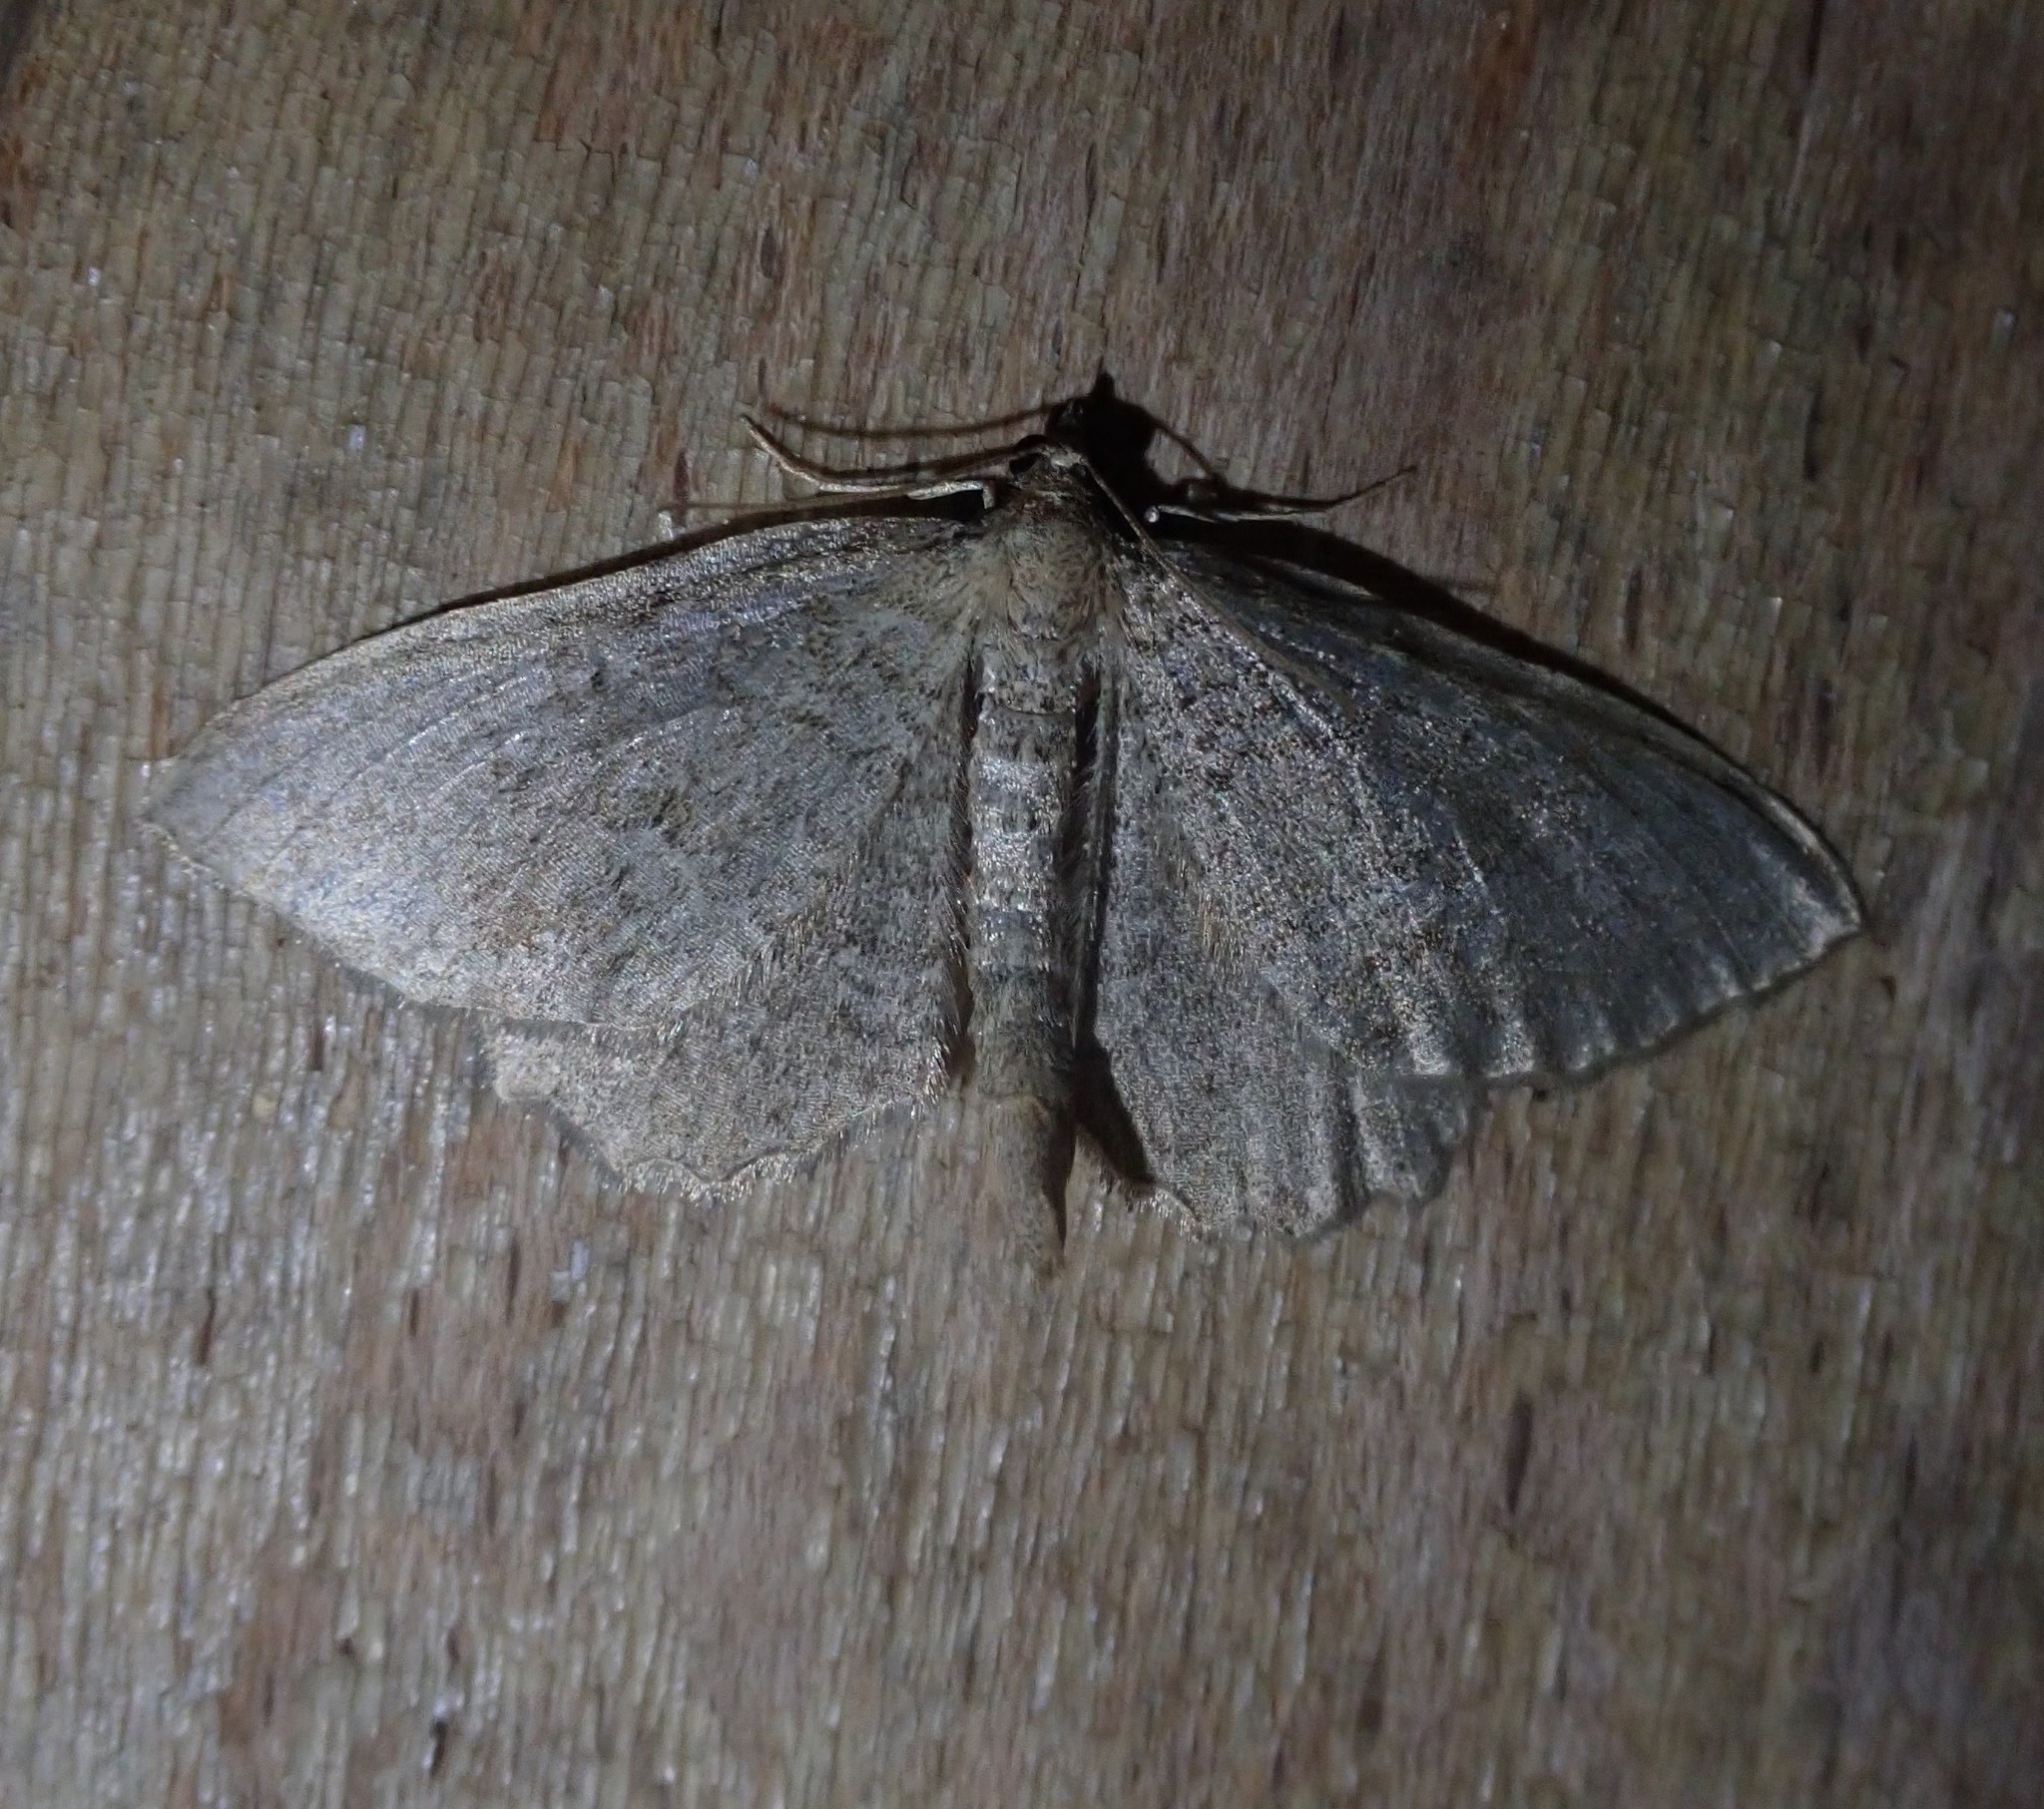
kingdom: Animalia
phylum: Arthropoda
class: Insecta
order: Lepidoptera
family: Geometridae
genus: Philereme
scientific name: Philereme vetulata
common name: Brown scallop
